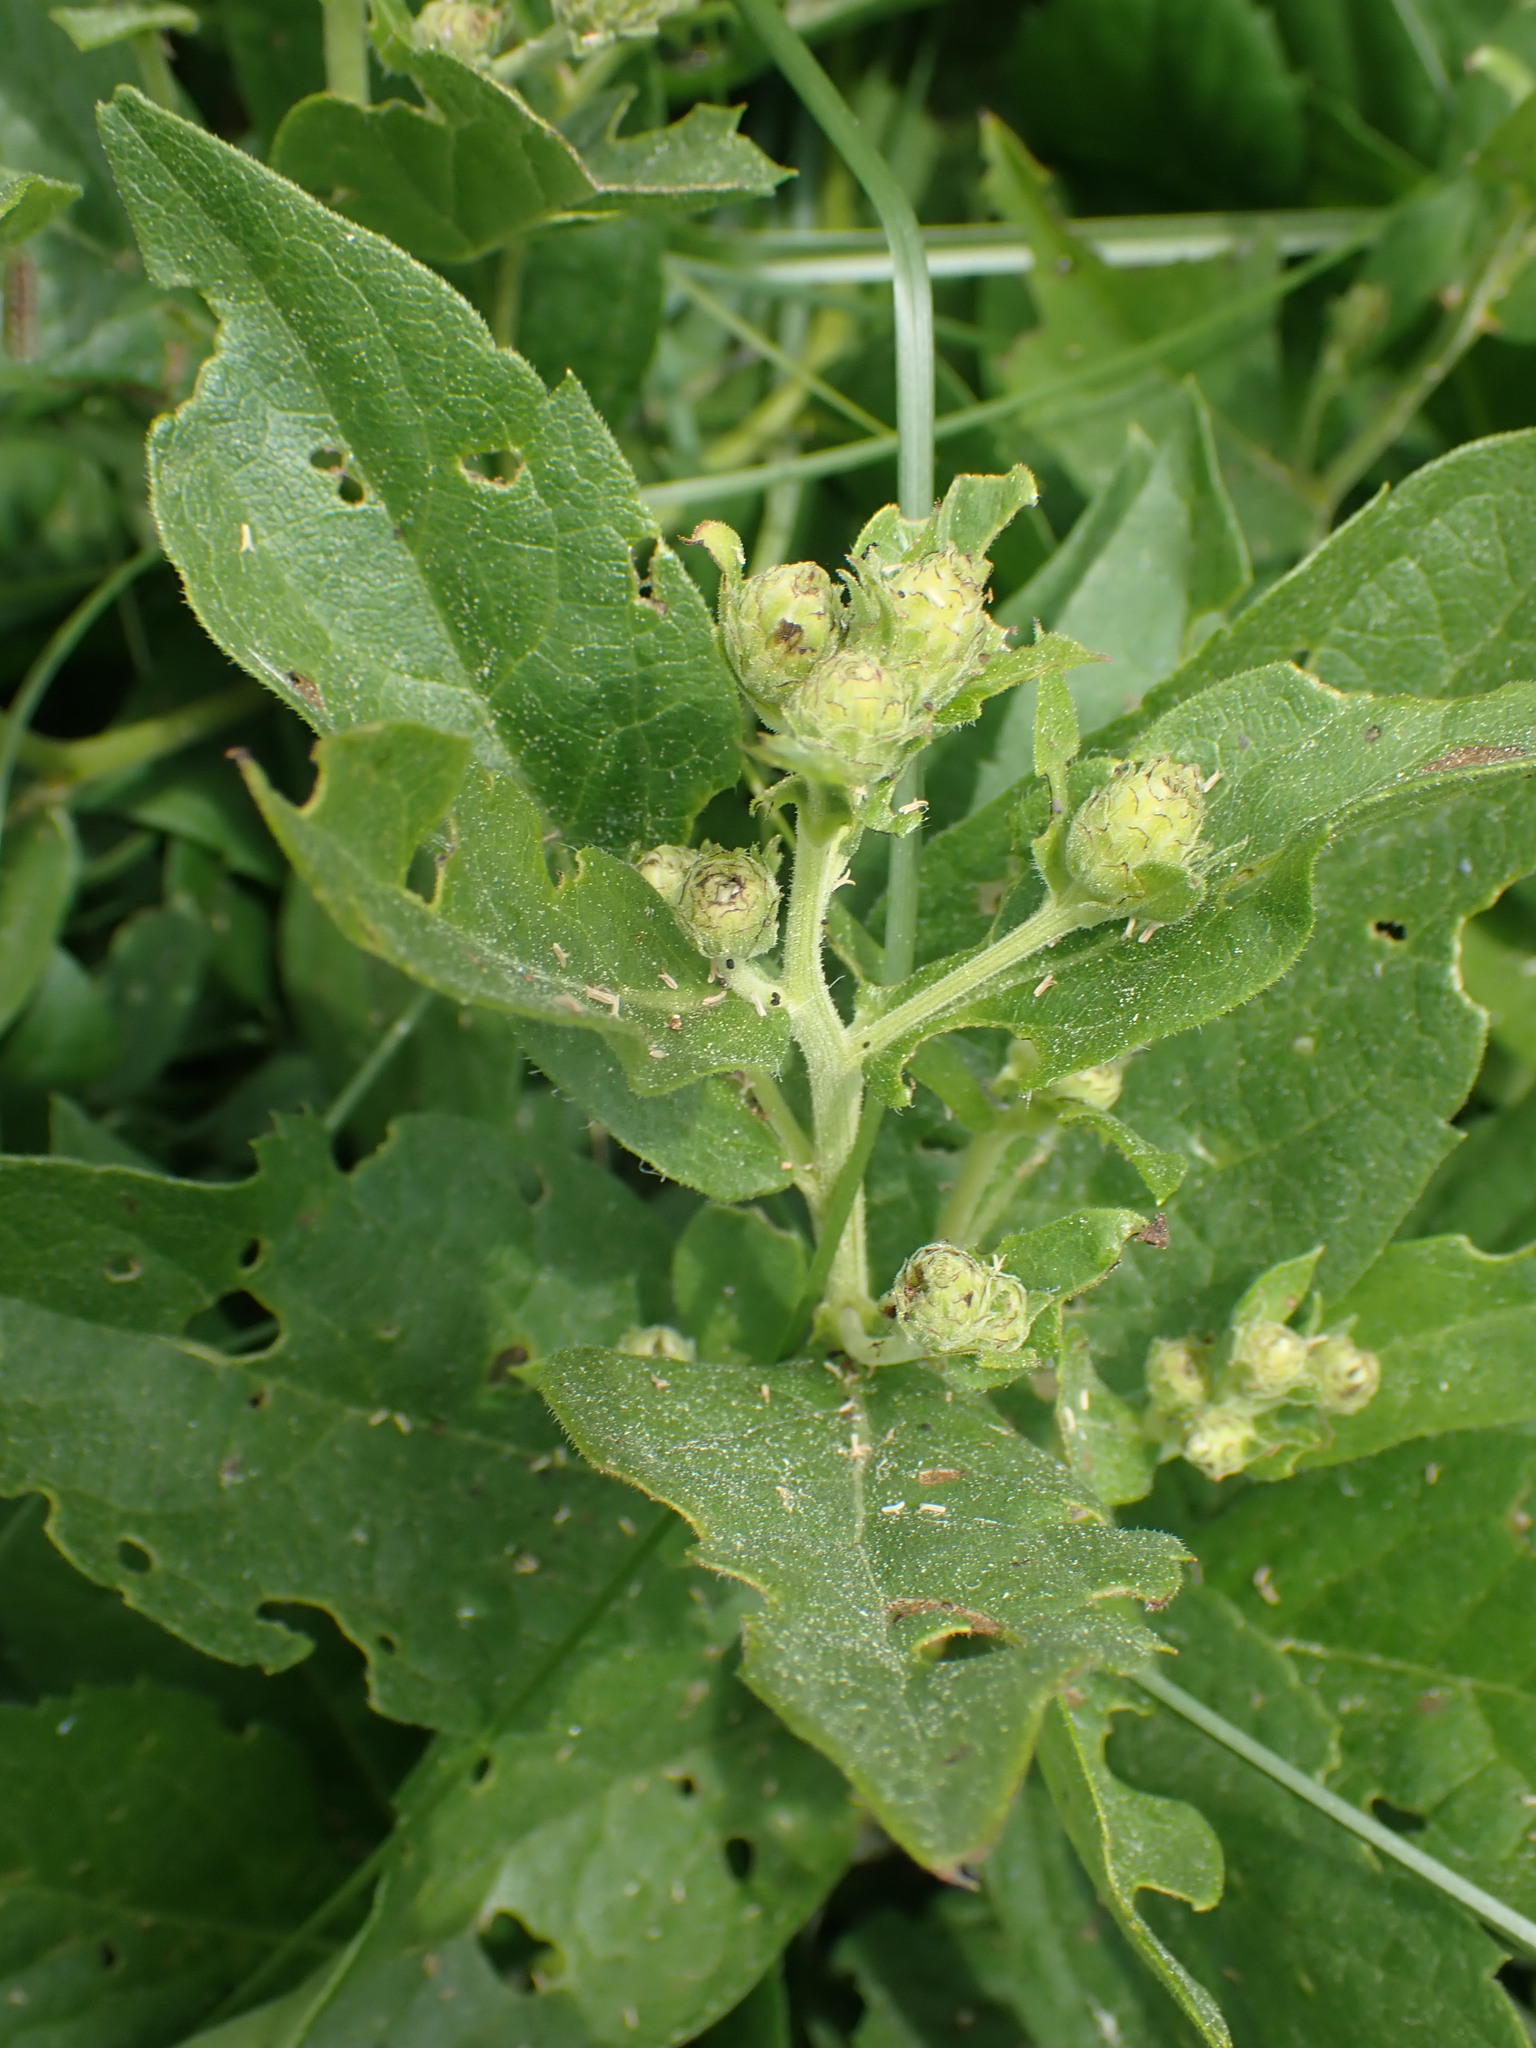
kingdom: Plantae
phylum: Tracheophyta
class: Magnoliopsida
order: Asterales
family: Asteraceae
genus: Eurybia
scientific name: Eurybia conspicua
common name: Showy aster
